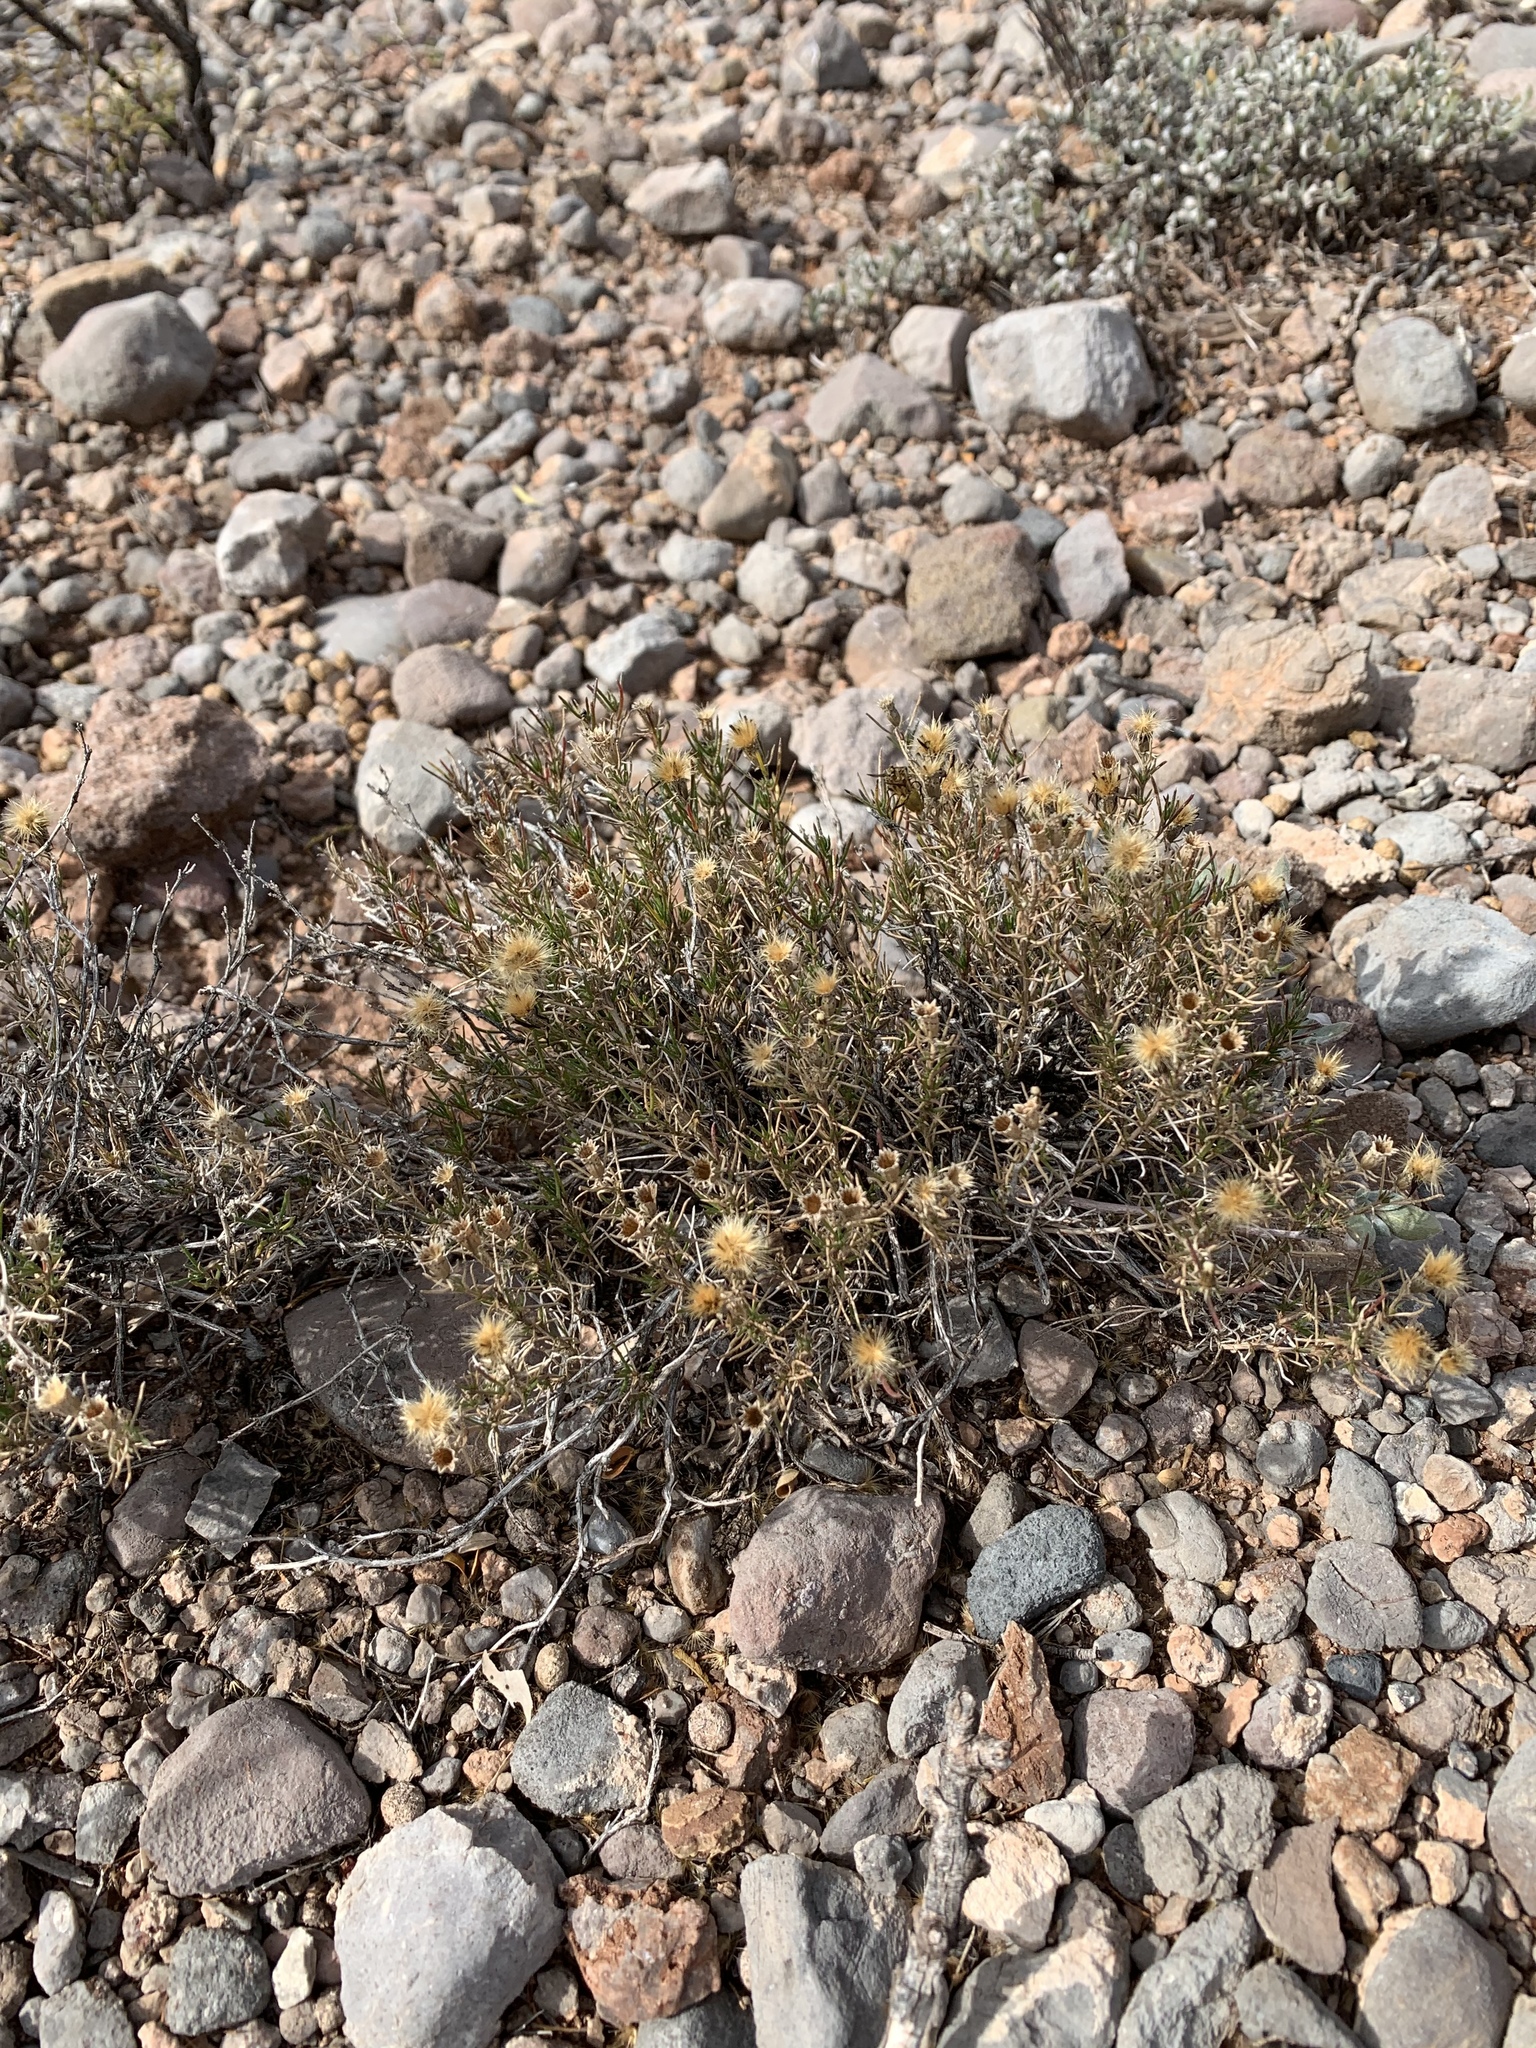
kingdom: Plantae
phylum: Tracheophyta
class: Magnoliopsida
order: Asterales
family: Asteraceae
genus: Thymophylla
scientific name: Thymophylla acerosa
